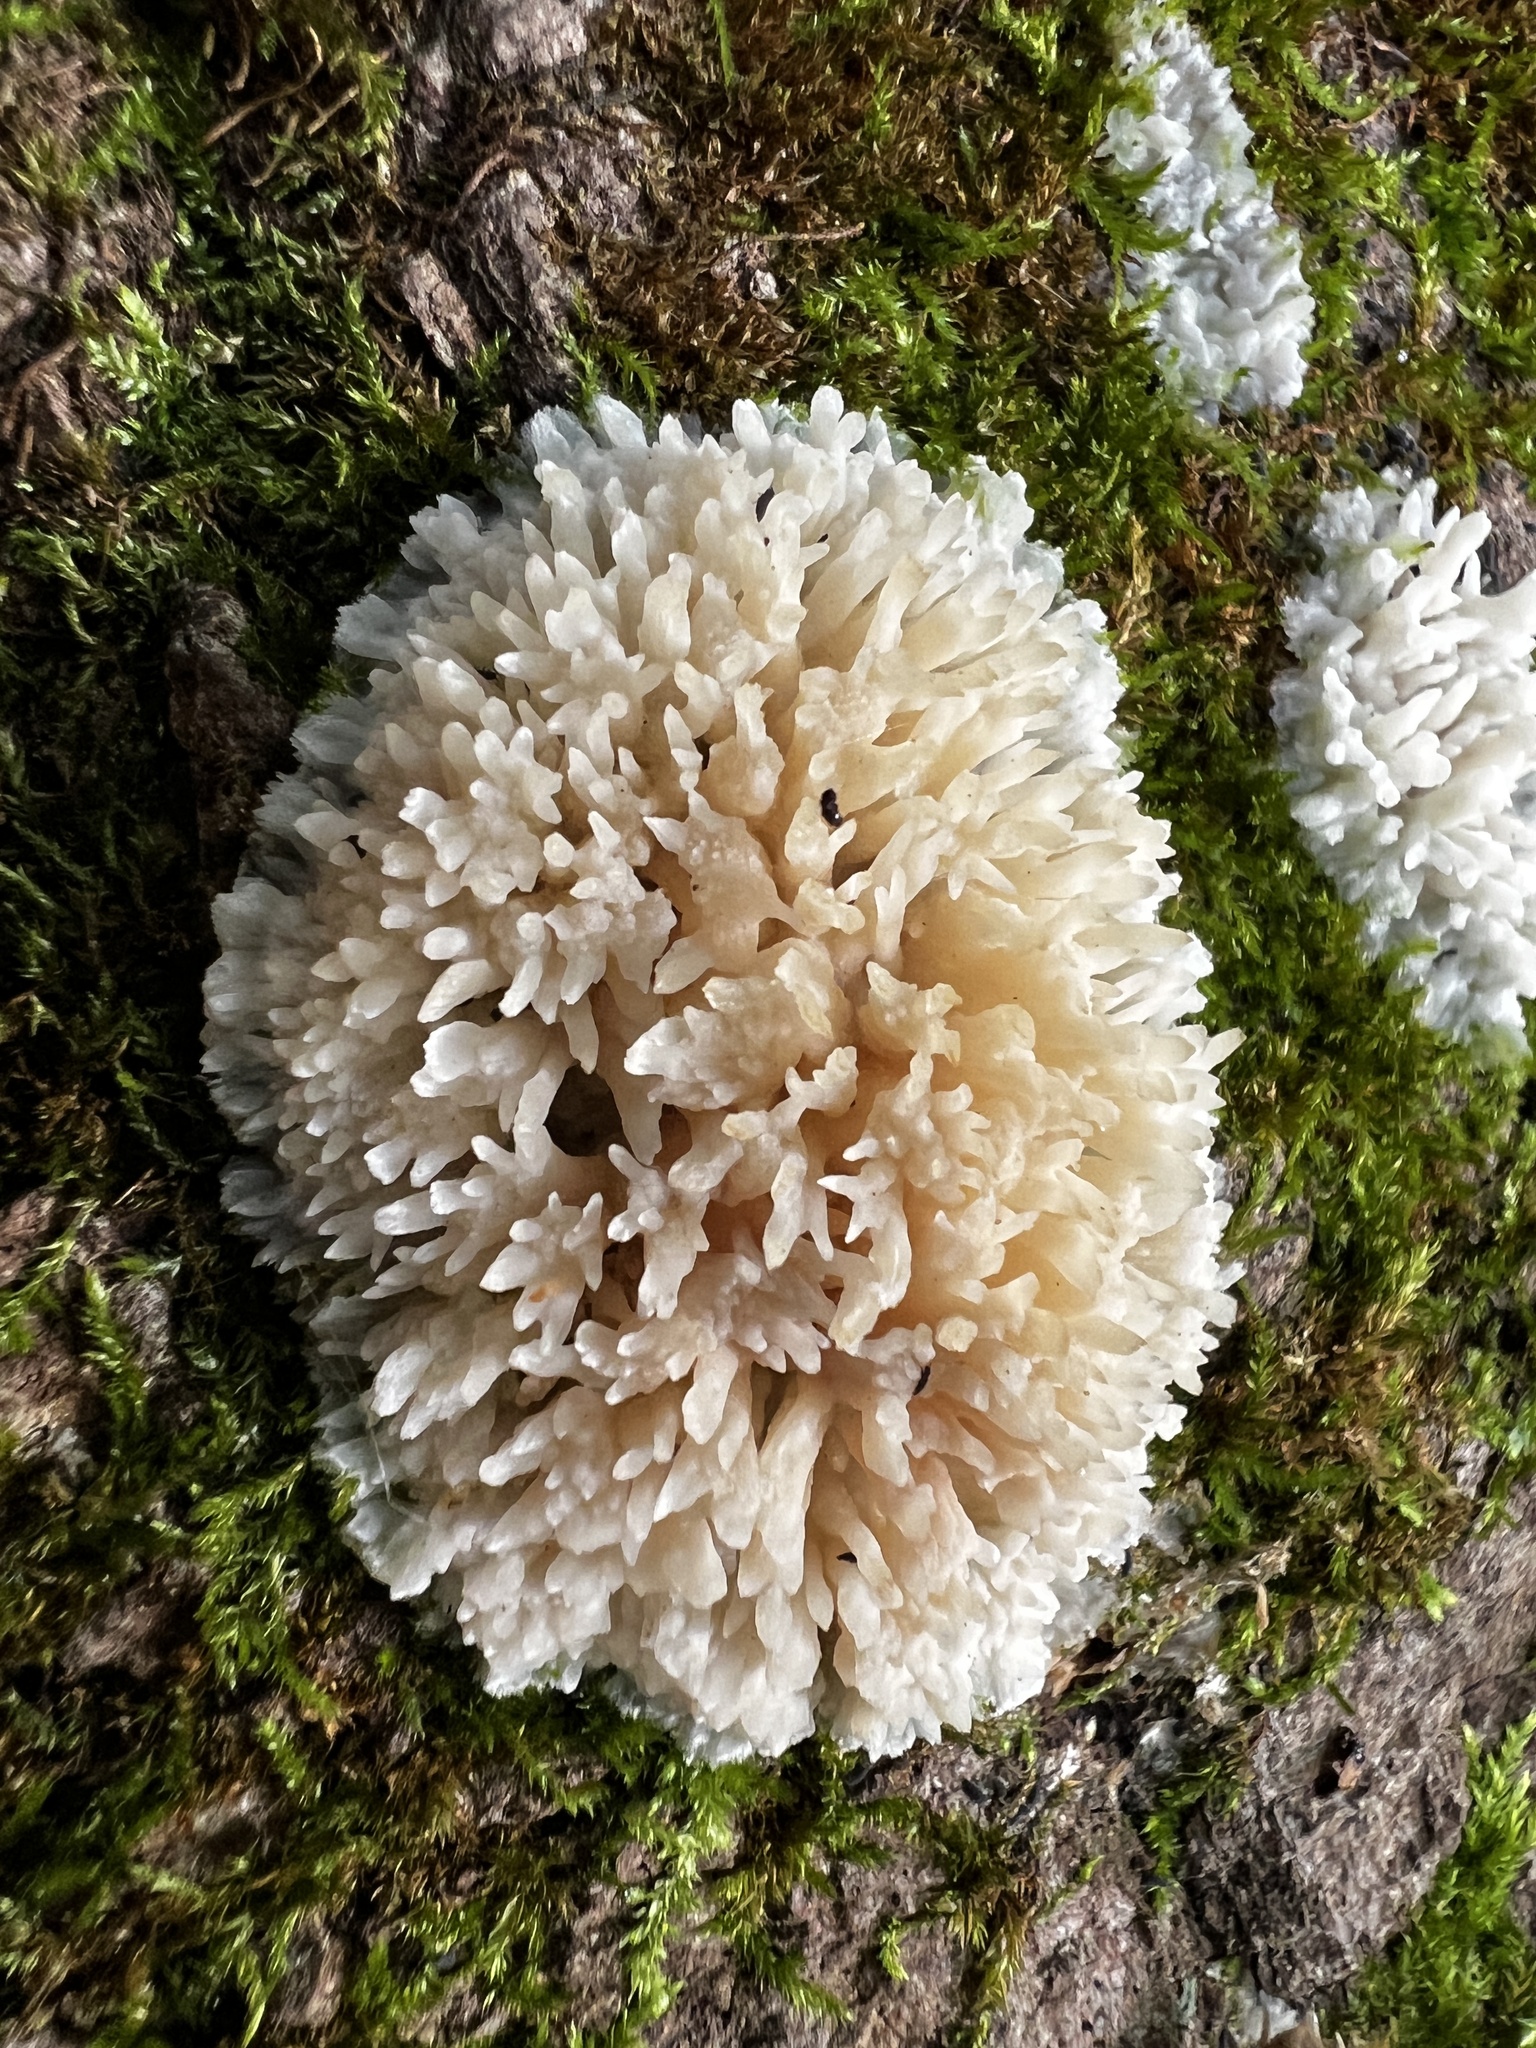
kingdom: Fungi
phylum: Basidiomycota
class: Agaricomycetes
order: Agaricales
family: Radulomycetaceae
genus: Radulomyces
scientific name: Radulomyces copelandii
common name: Asian beauty
